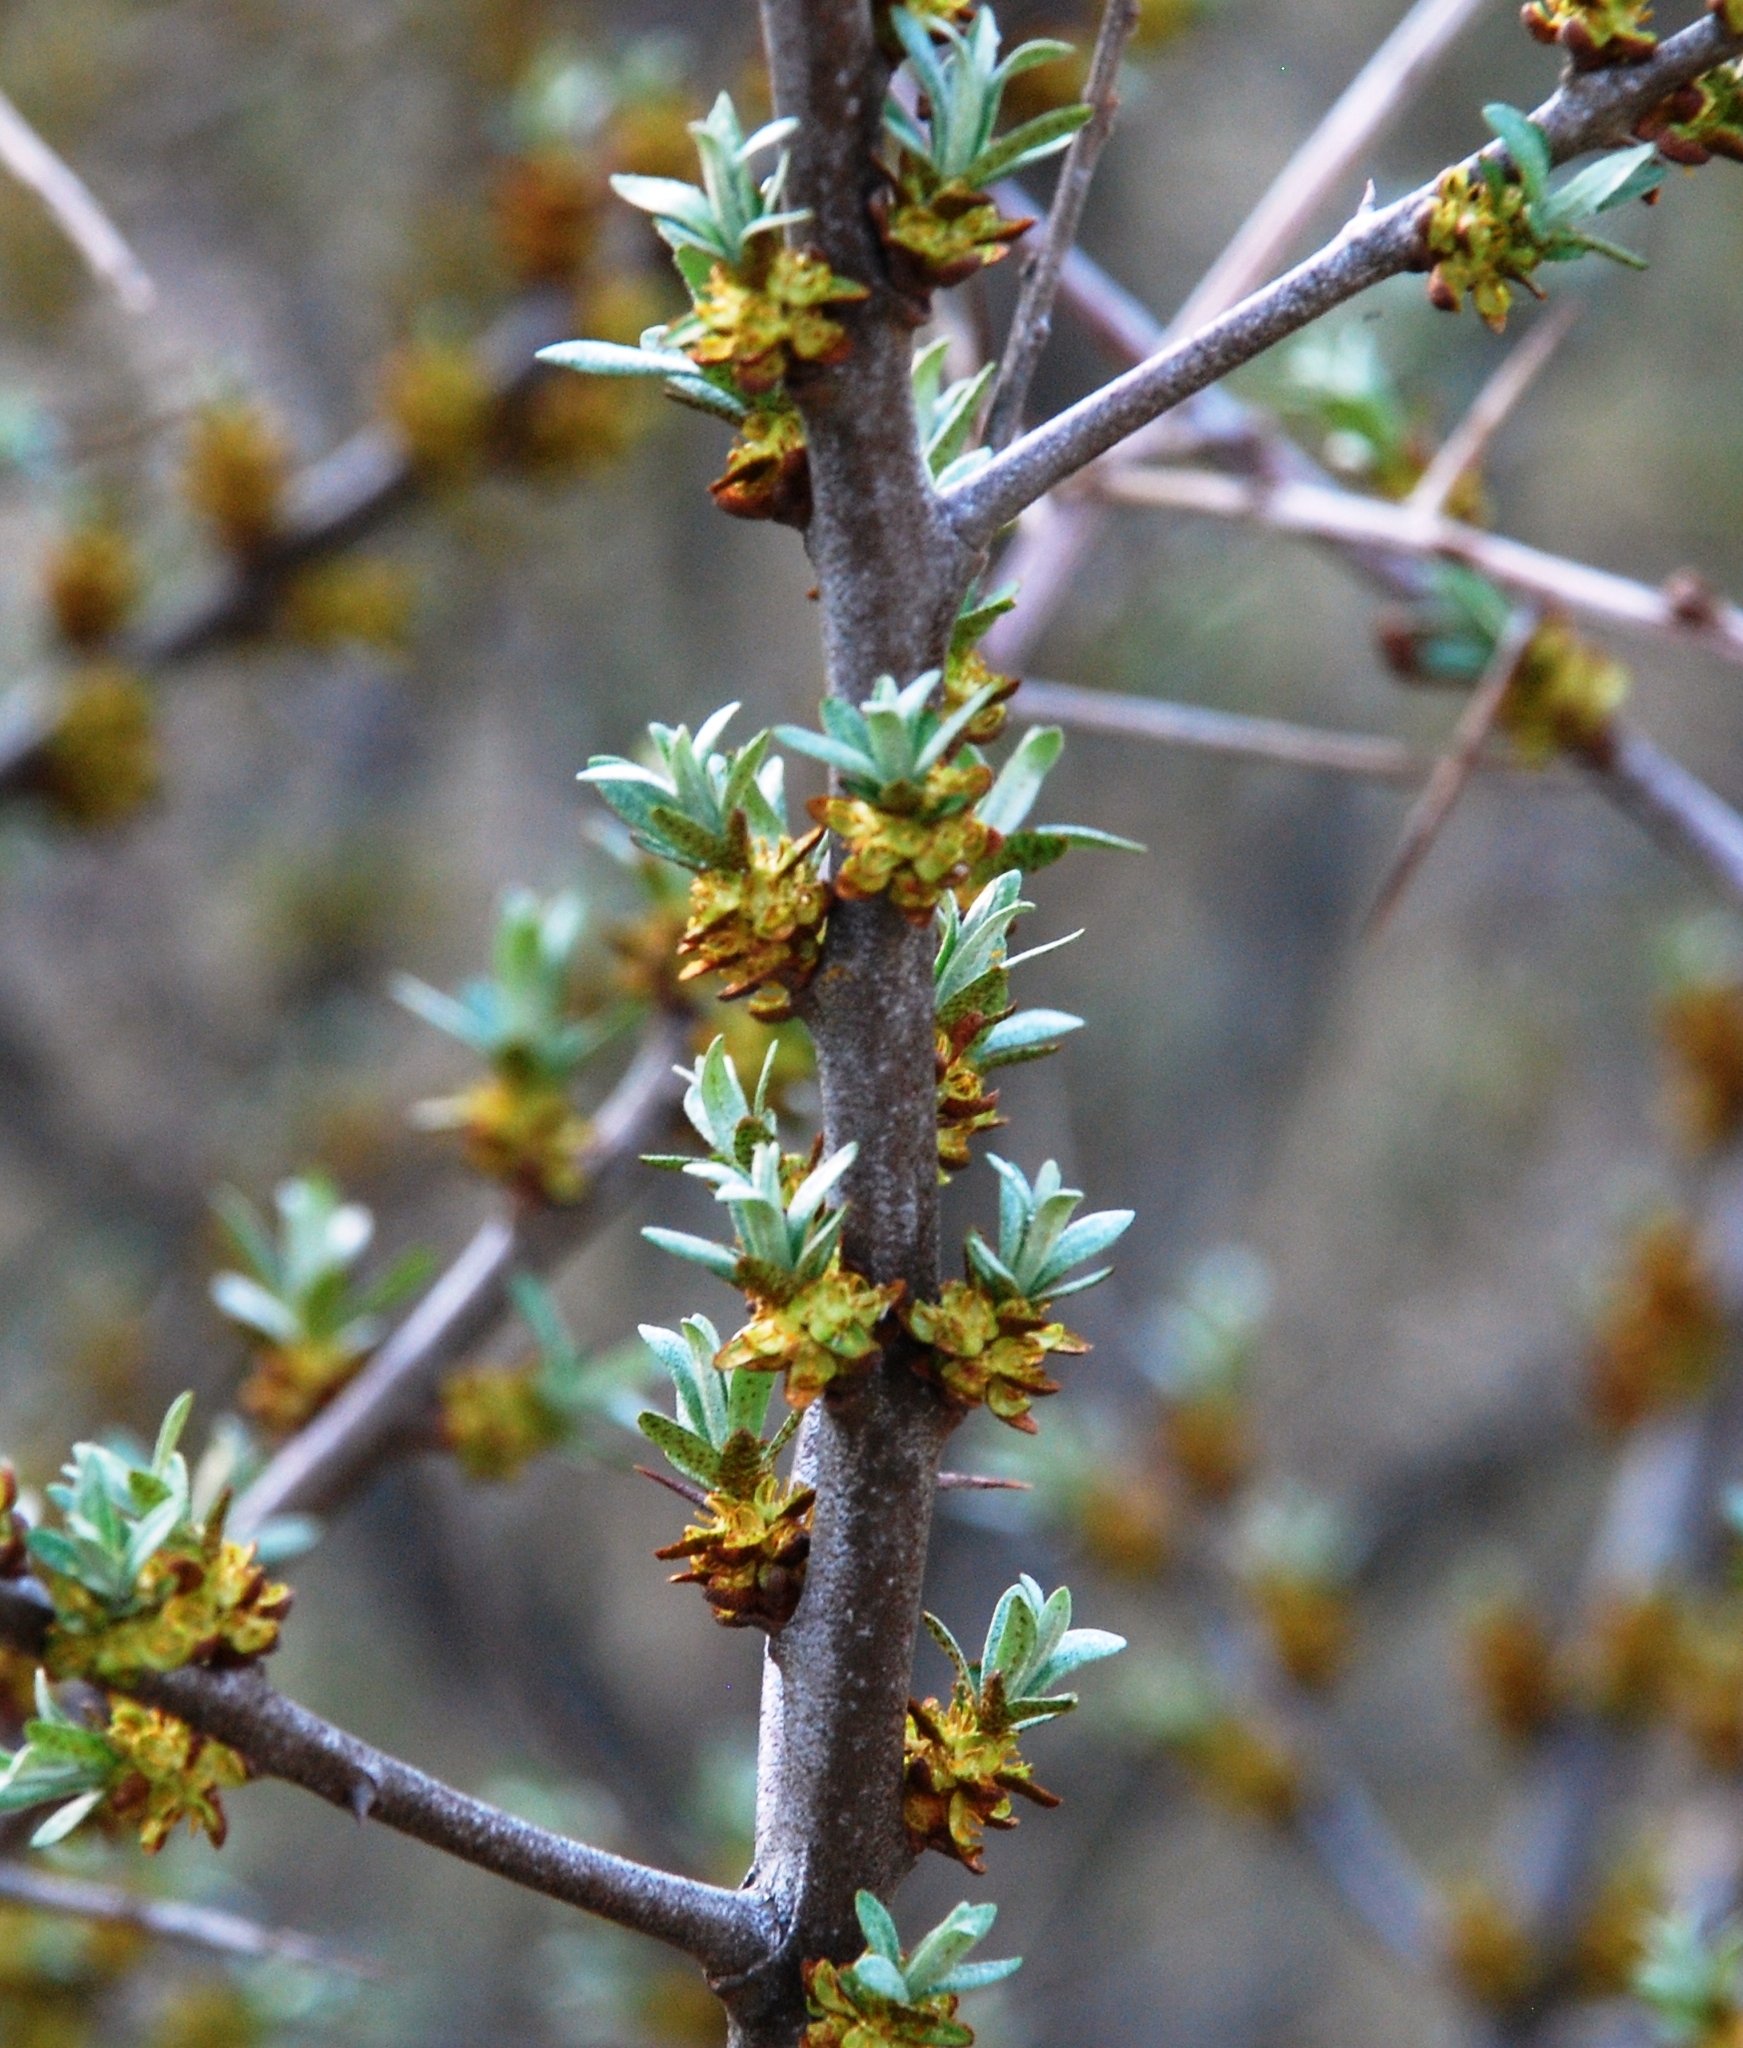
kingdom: Plantae
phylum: Tracheophyta
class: Magnoliopsida
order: Rosales
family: Elaeagnaceae
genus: Hippophae
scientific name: Hippophae rhamnoides
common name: Sea-buckthorn
